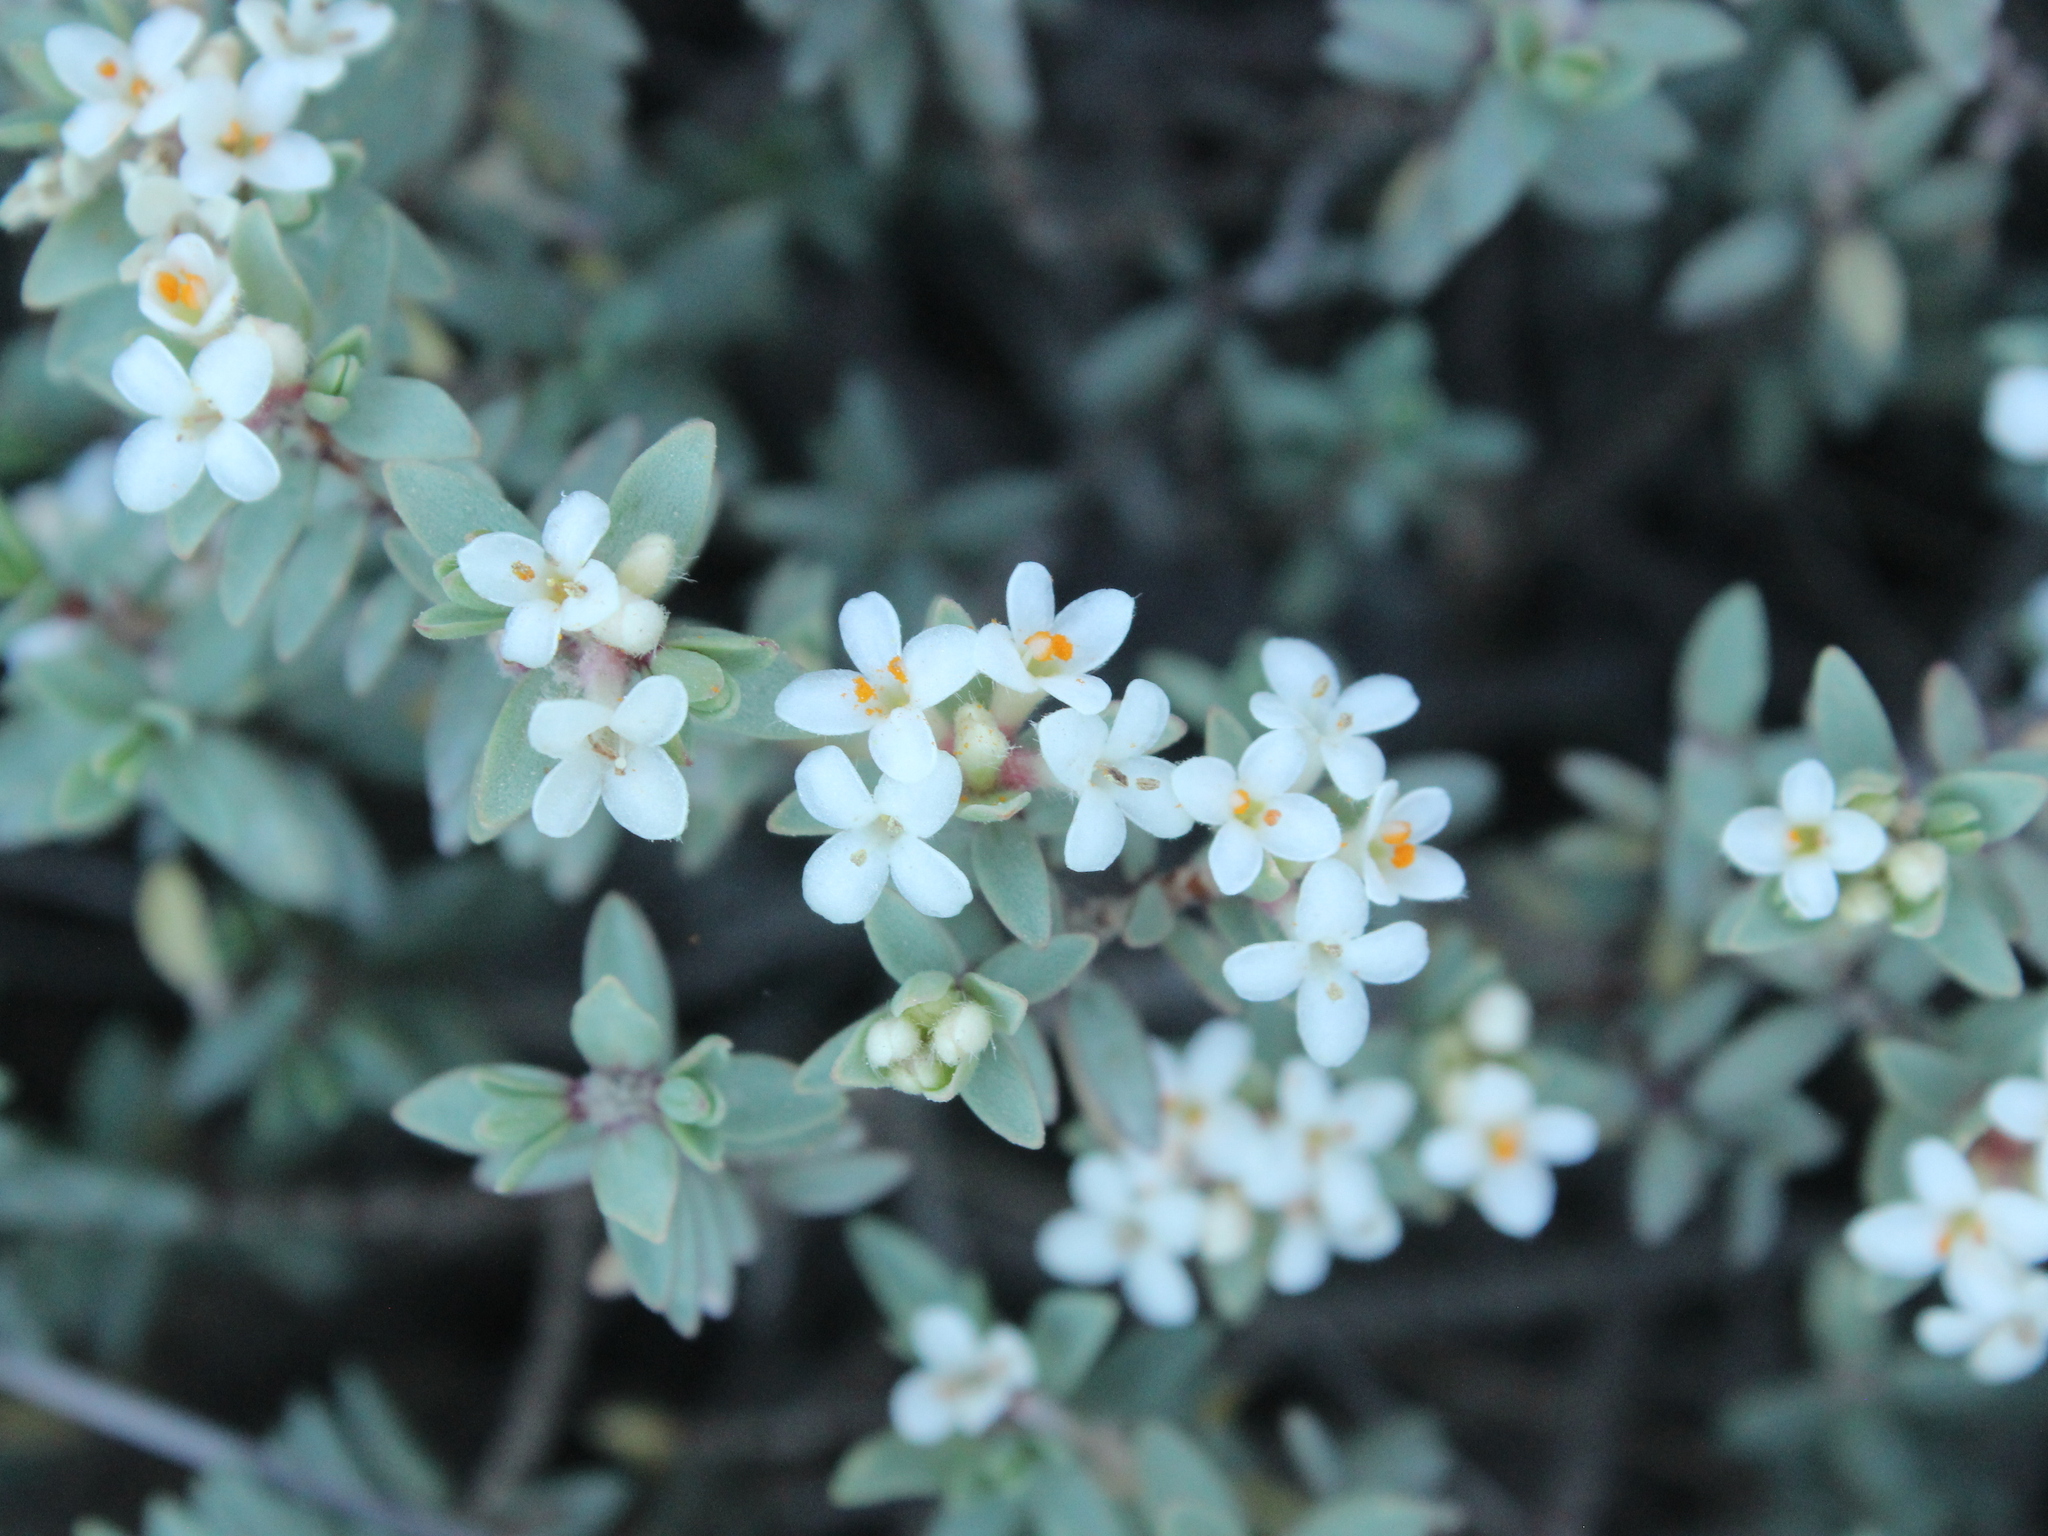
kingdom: Plantae
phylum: Tracheophyta
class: Magnoliopsida
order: Malvales
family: Thymelaeaceae
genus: Pimelea
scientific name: Pimelea prostrata
